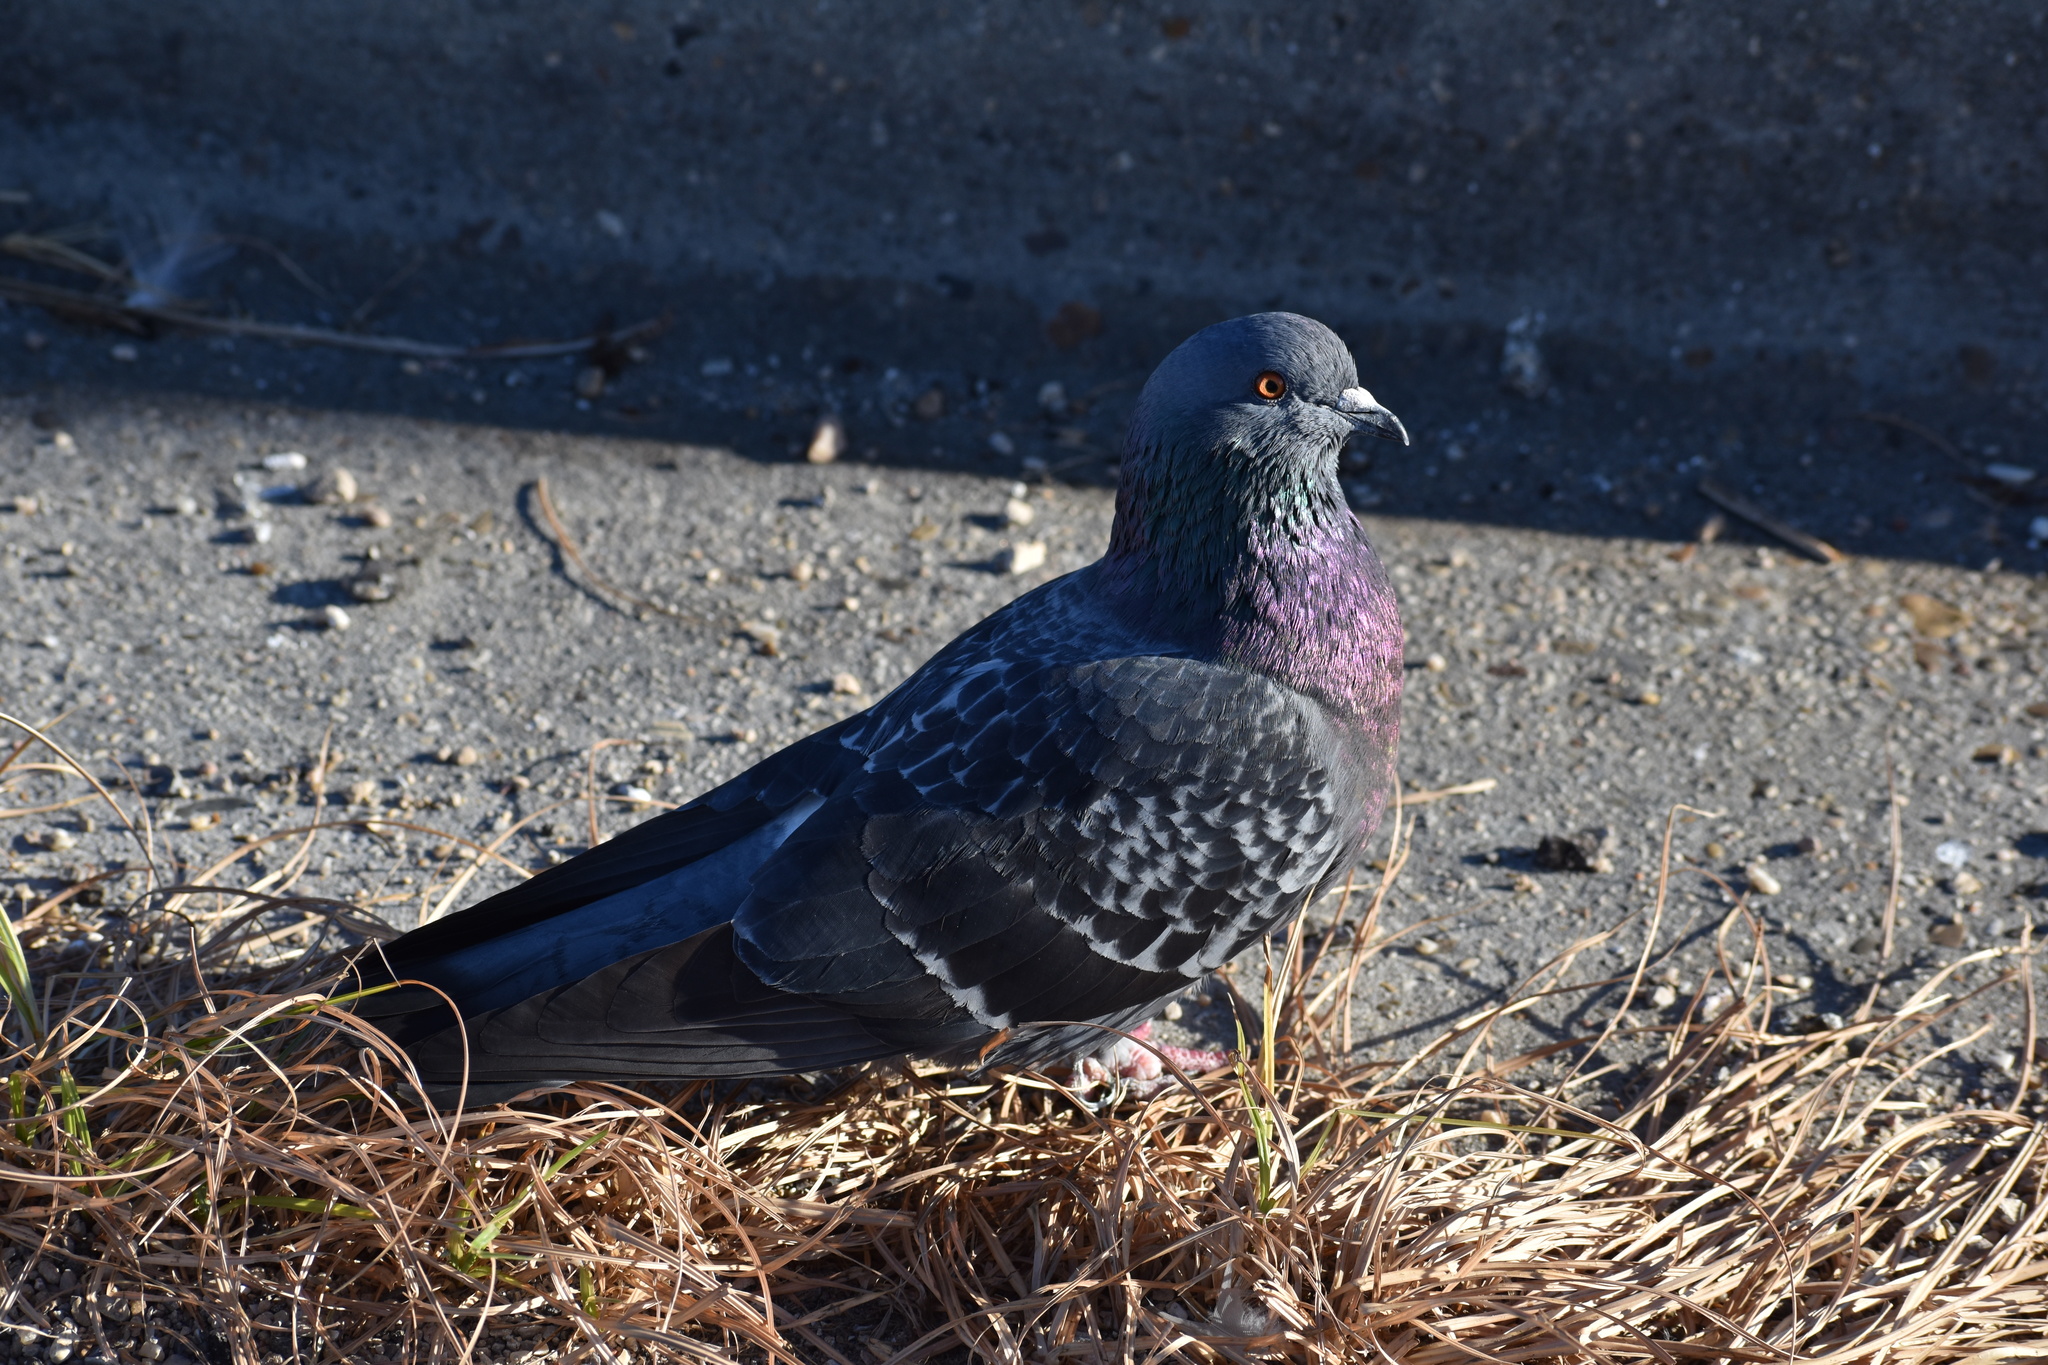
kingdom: Animalia
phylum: Chordata
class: Aves
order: Columbiformes
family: Columbidae
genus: Columba
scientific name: Columba livia
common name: Rock pigeon
